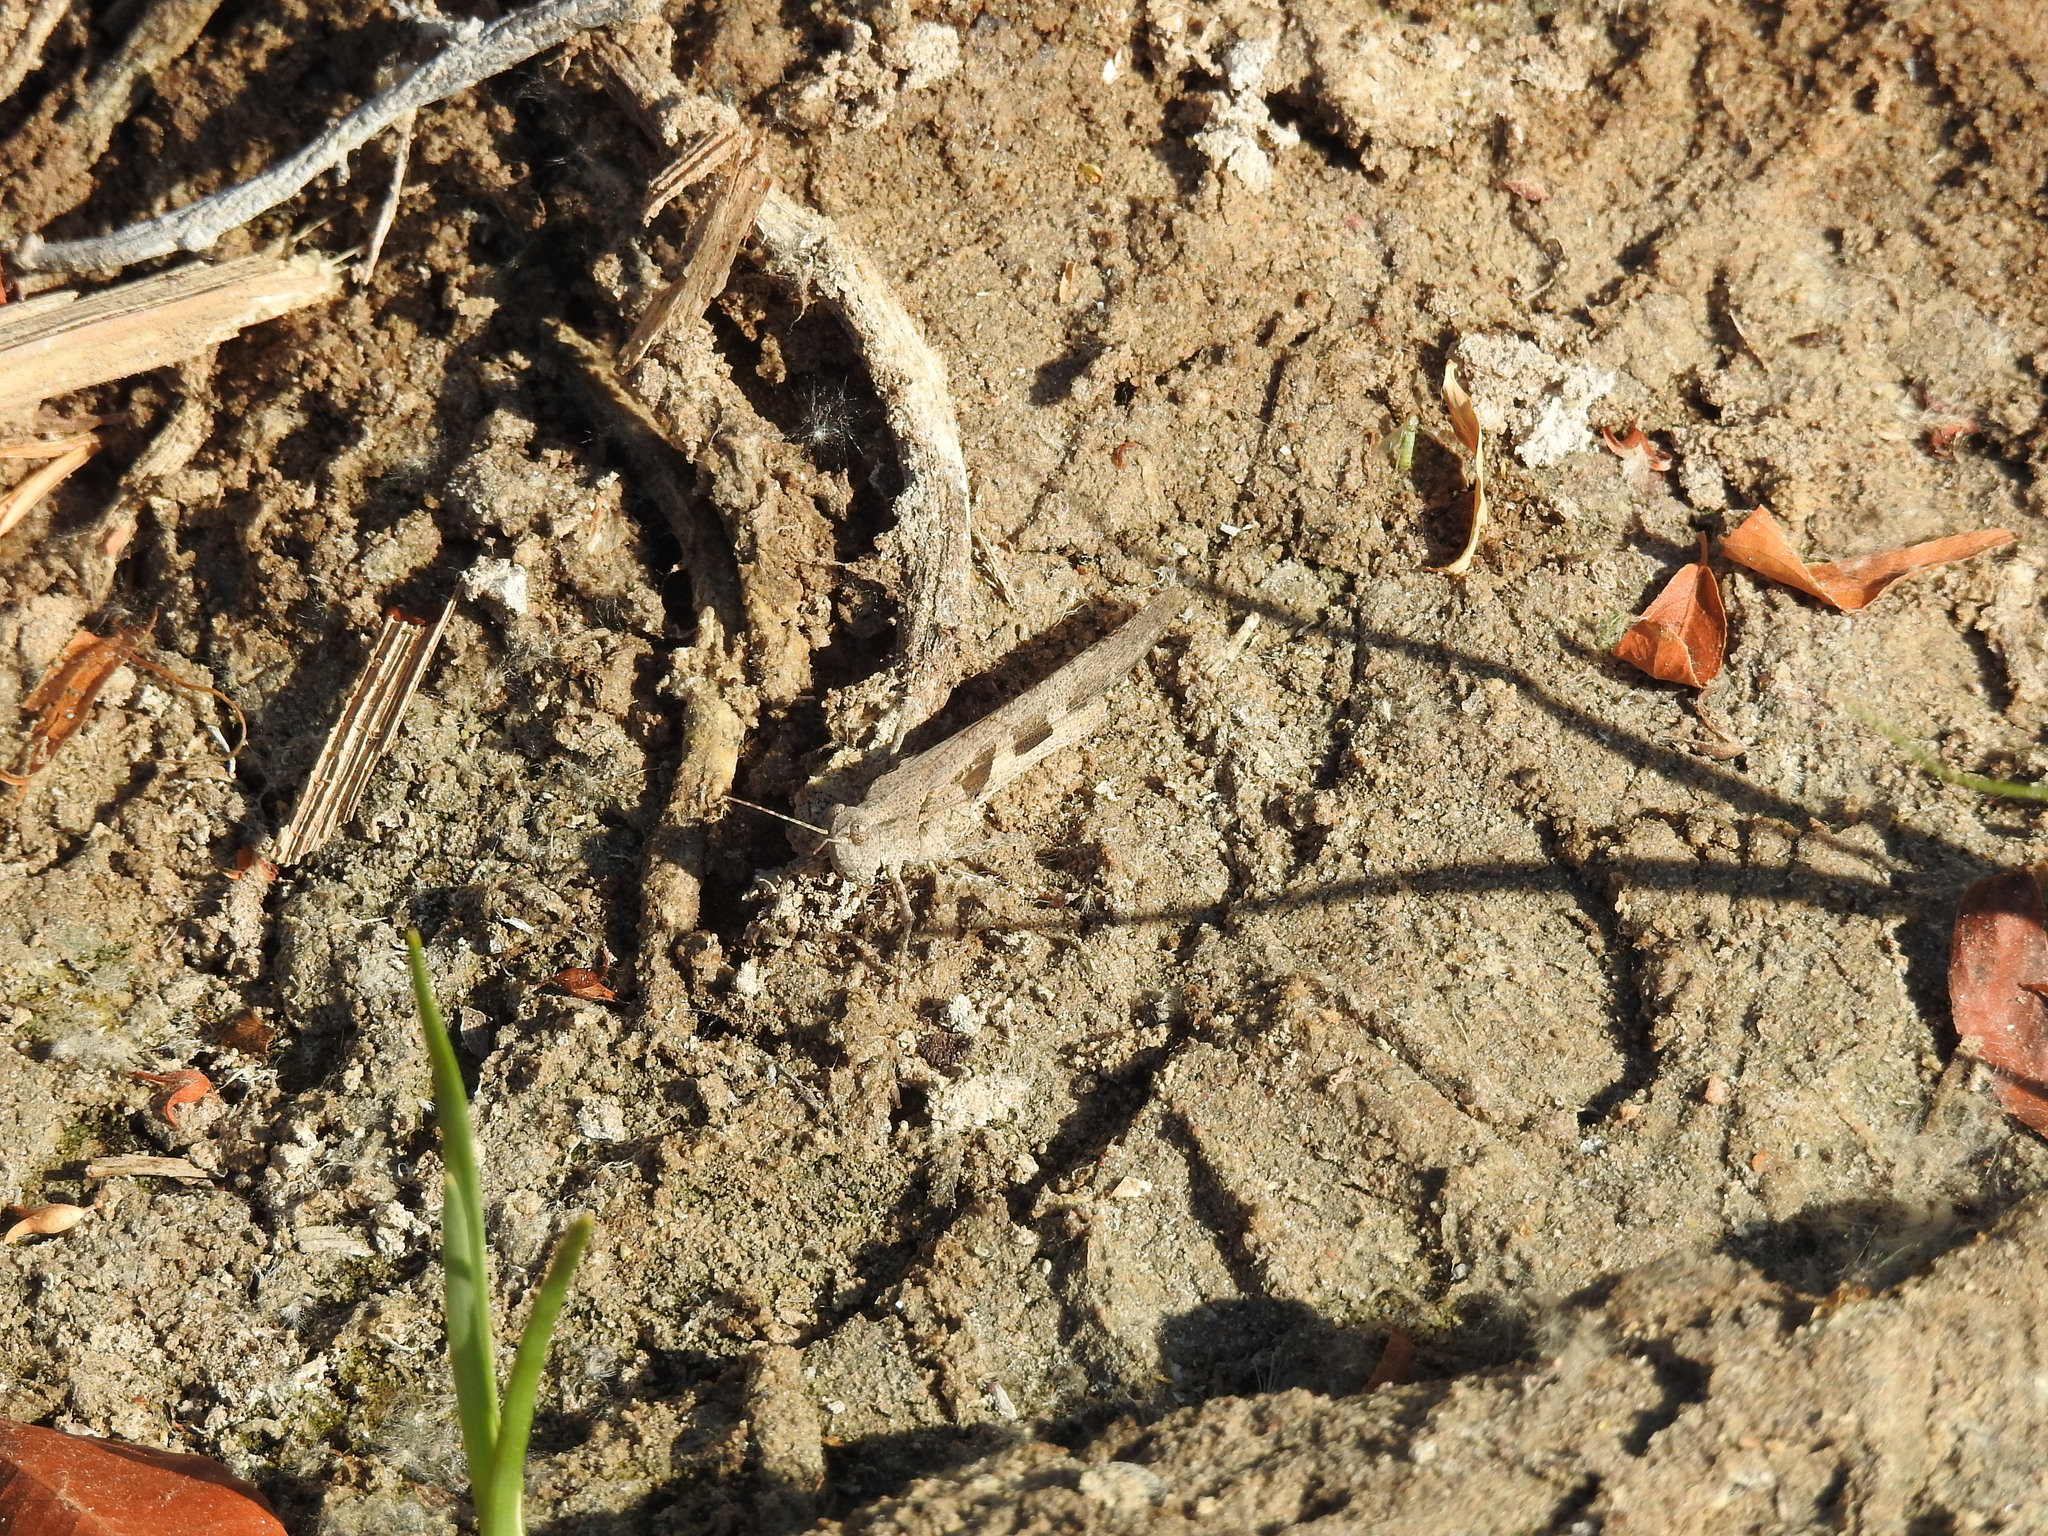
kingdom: Animalia
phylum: Arthropoda
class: Insecta
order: Orthoptera
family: Acrididae
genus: Trimerotropis
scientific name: Trimerotropis pallidipennis
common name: Pallid-winged grasshopper
